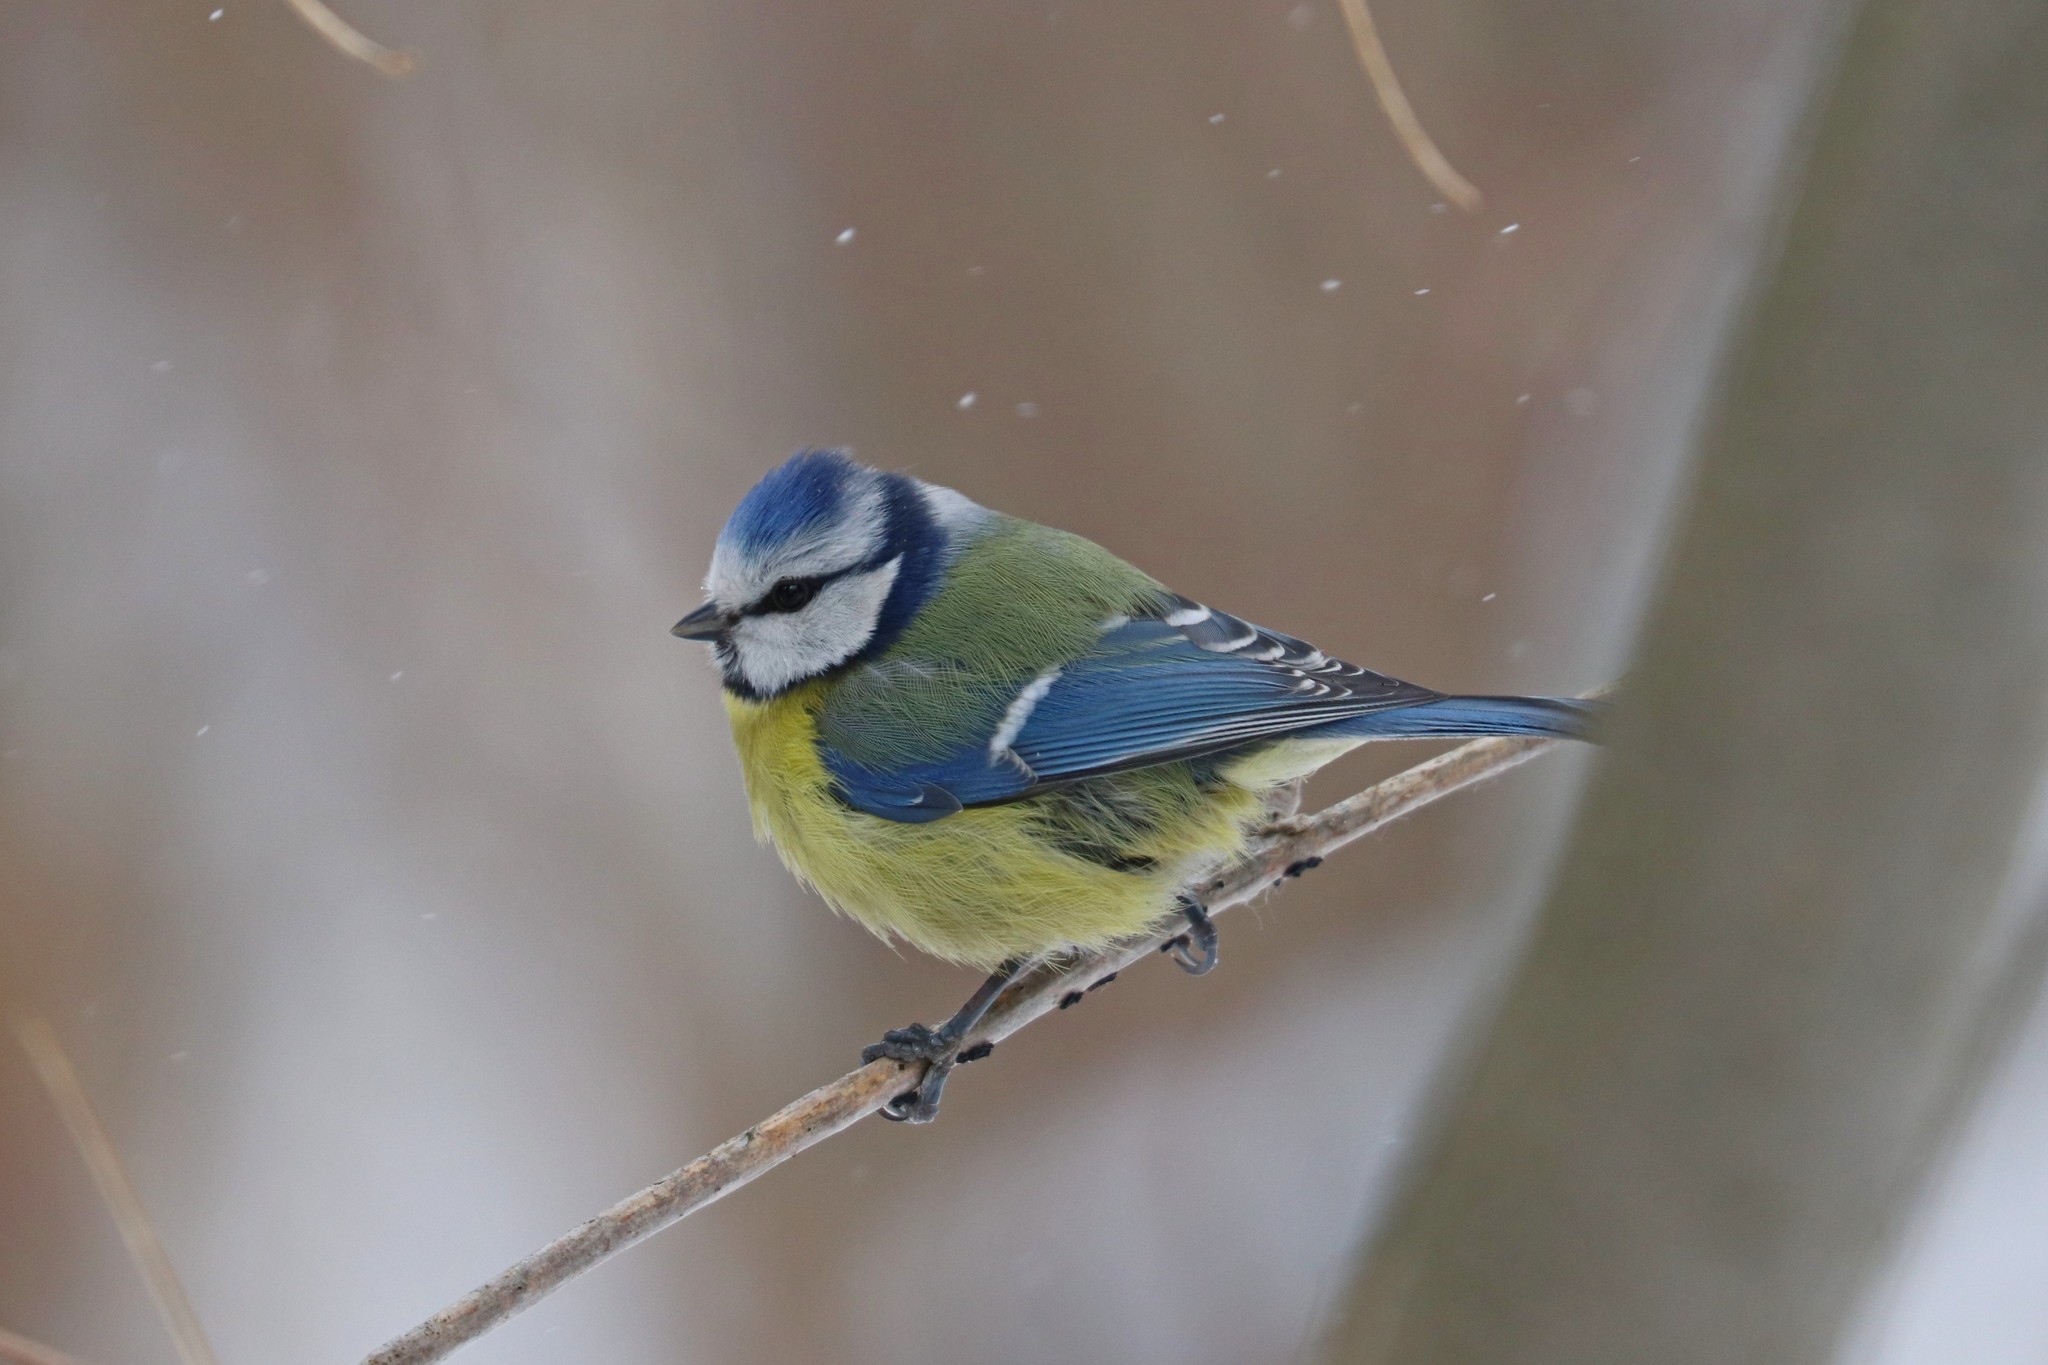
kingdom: Animalia
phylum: Chordata
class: Aves
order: Passeriformes
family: Paridae
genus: Cyanistes
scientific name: Cyanistes caeruleus
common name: Eurasian blue tit
